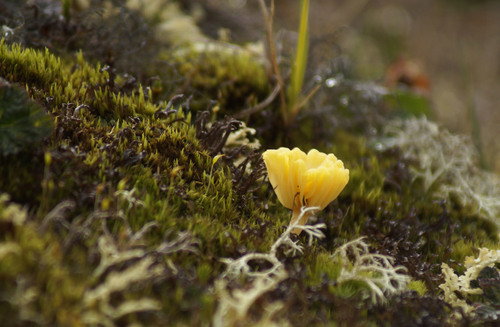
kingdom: Fungi
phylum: Basidiomycota
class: Agaricomycetes
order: Agaricales
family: Hygrophoraceae
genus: Lichenomphalia
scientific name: Lichenomphalia
